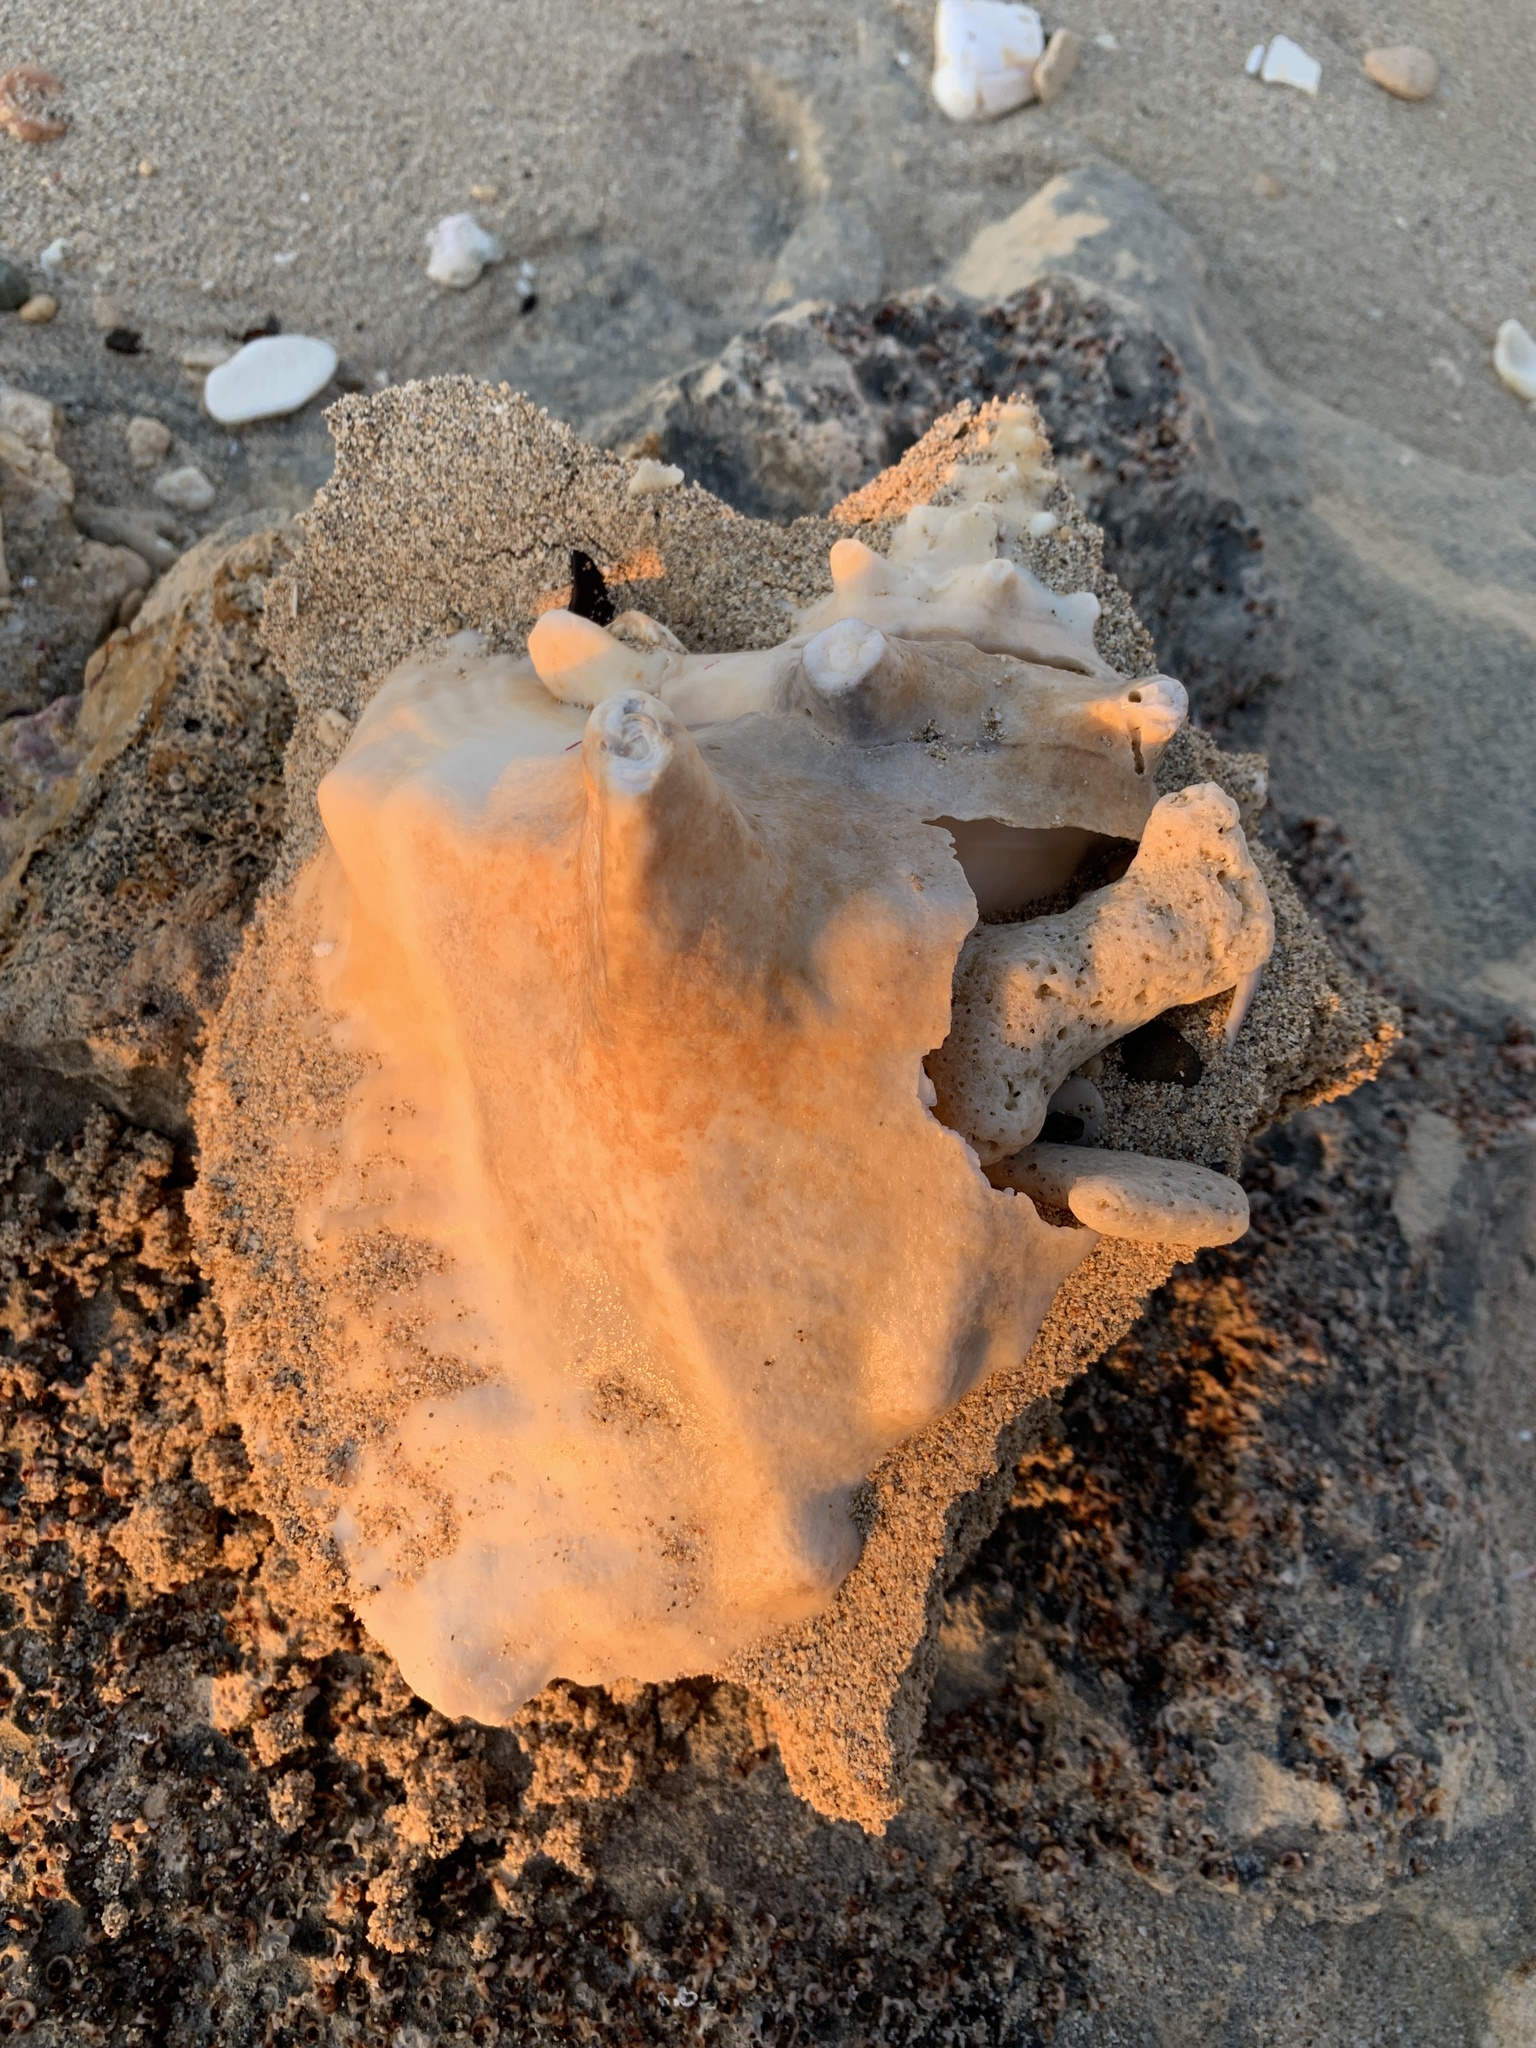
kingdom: Animalia
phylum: Mollusca
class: Gastropoda
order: Littorinimorpha
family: Strombidae
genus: Aliger
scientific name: Aliger gigas
